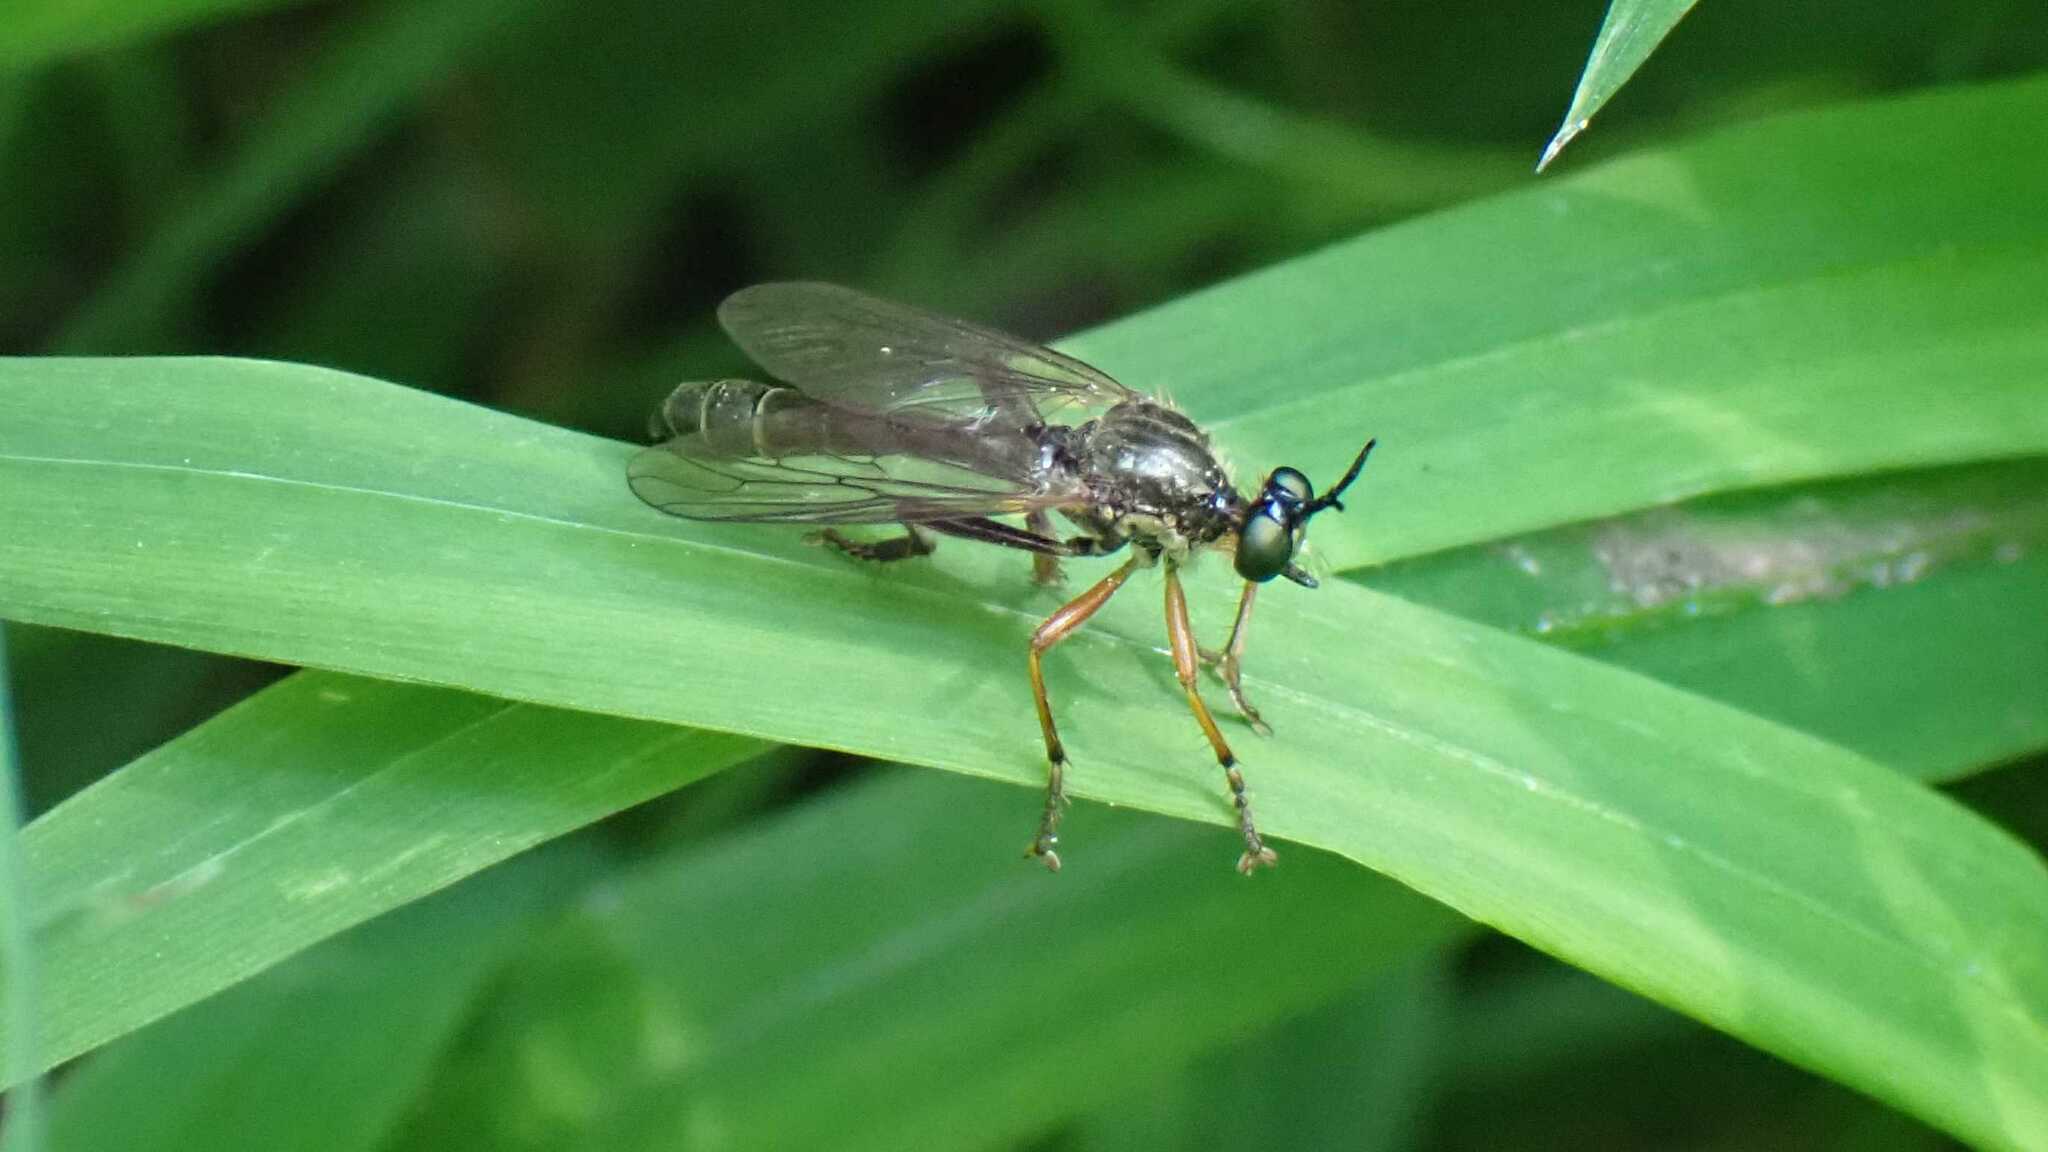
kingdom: Animalia
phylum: Arthropoda
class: Insecta
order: Diptera
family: Asilidae
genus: Dioctria
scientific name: Dioctria rufipes
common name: Common red-legged robberfly
